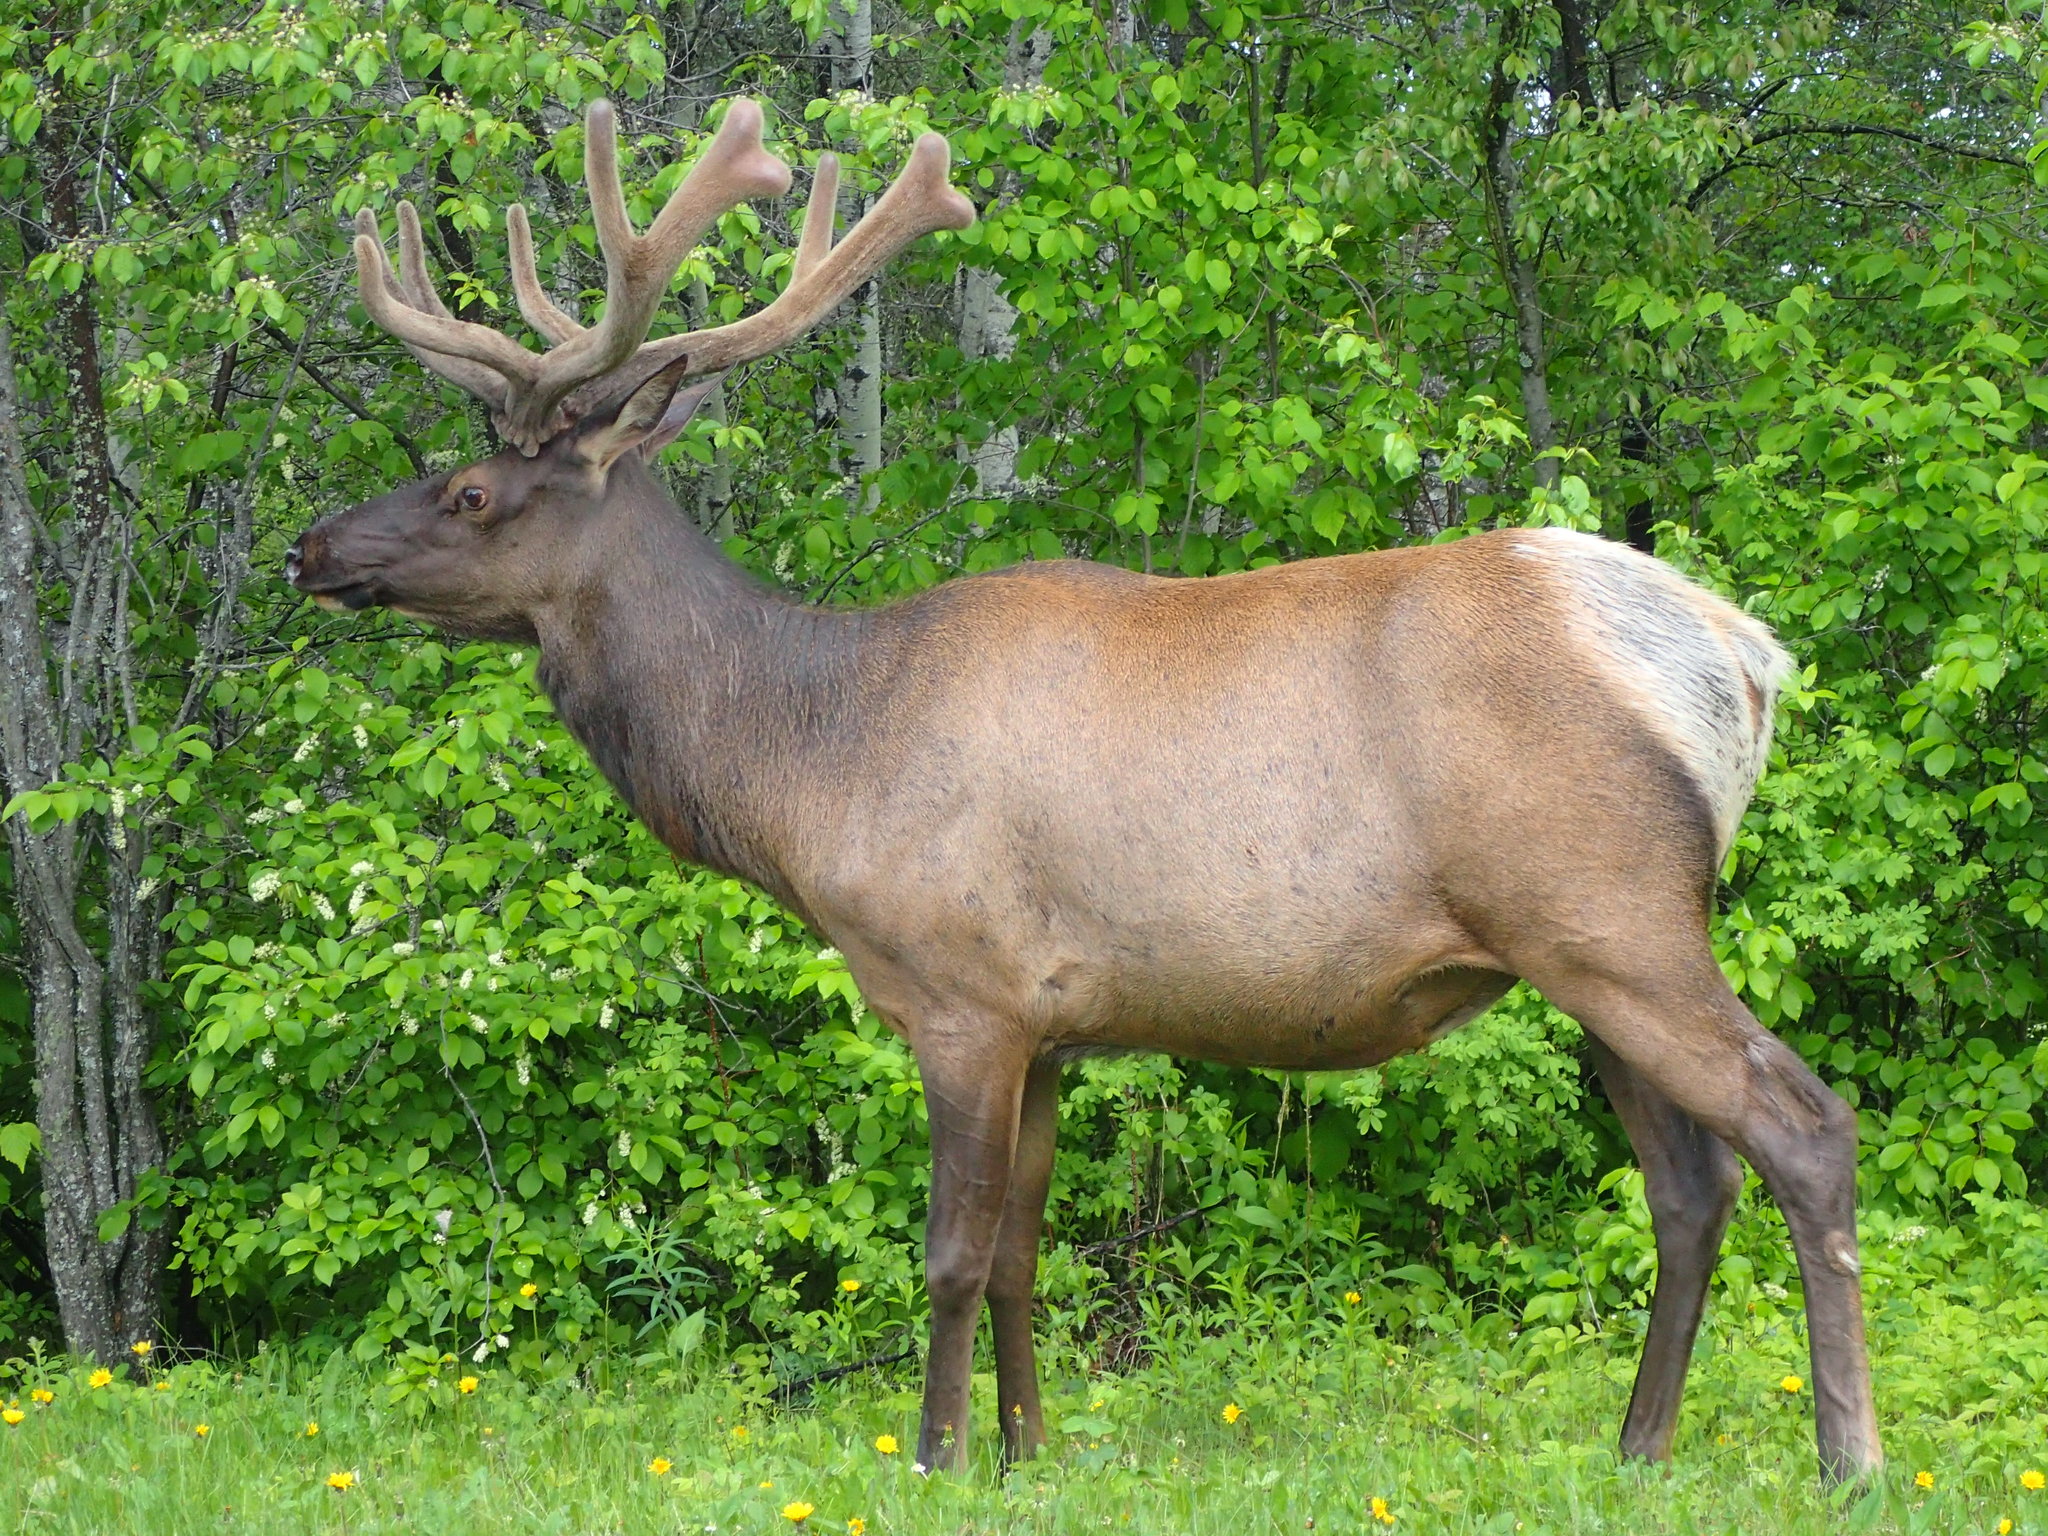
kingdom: Animalia
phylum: Chordata
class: Mammalia
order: Artiodactyla
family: Cervidae
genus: Cervus
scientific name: Cervus elaphus
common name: Red deer
